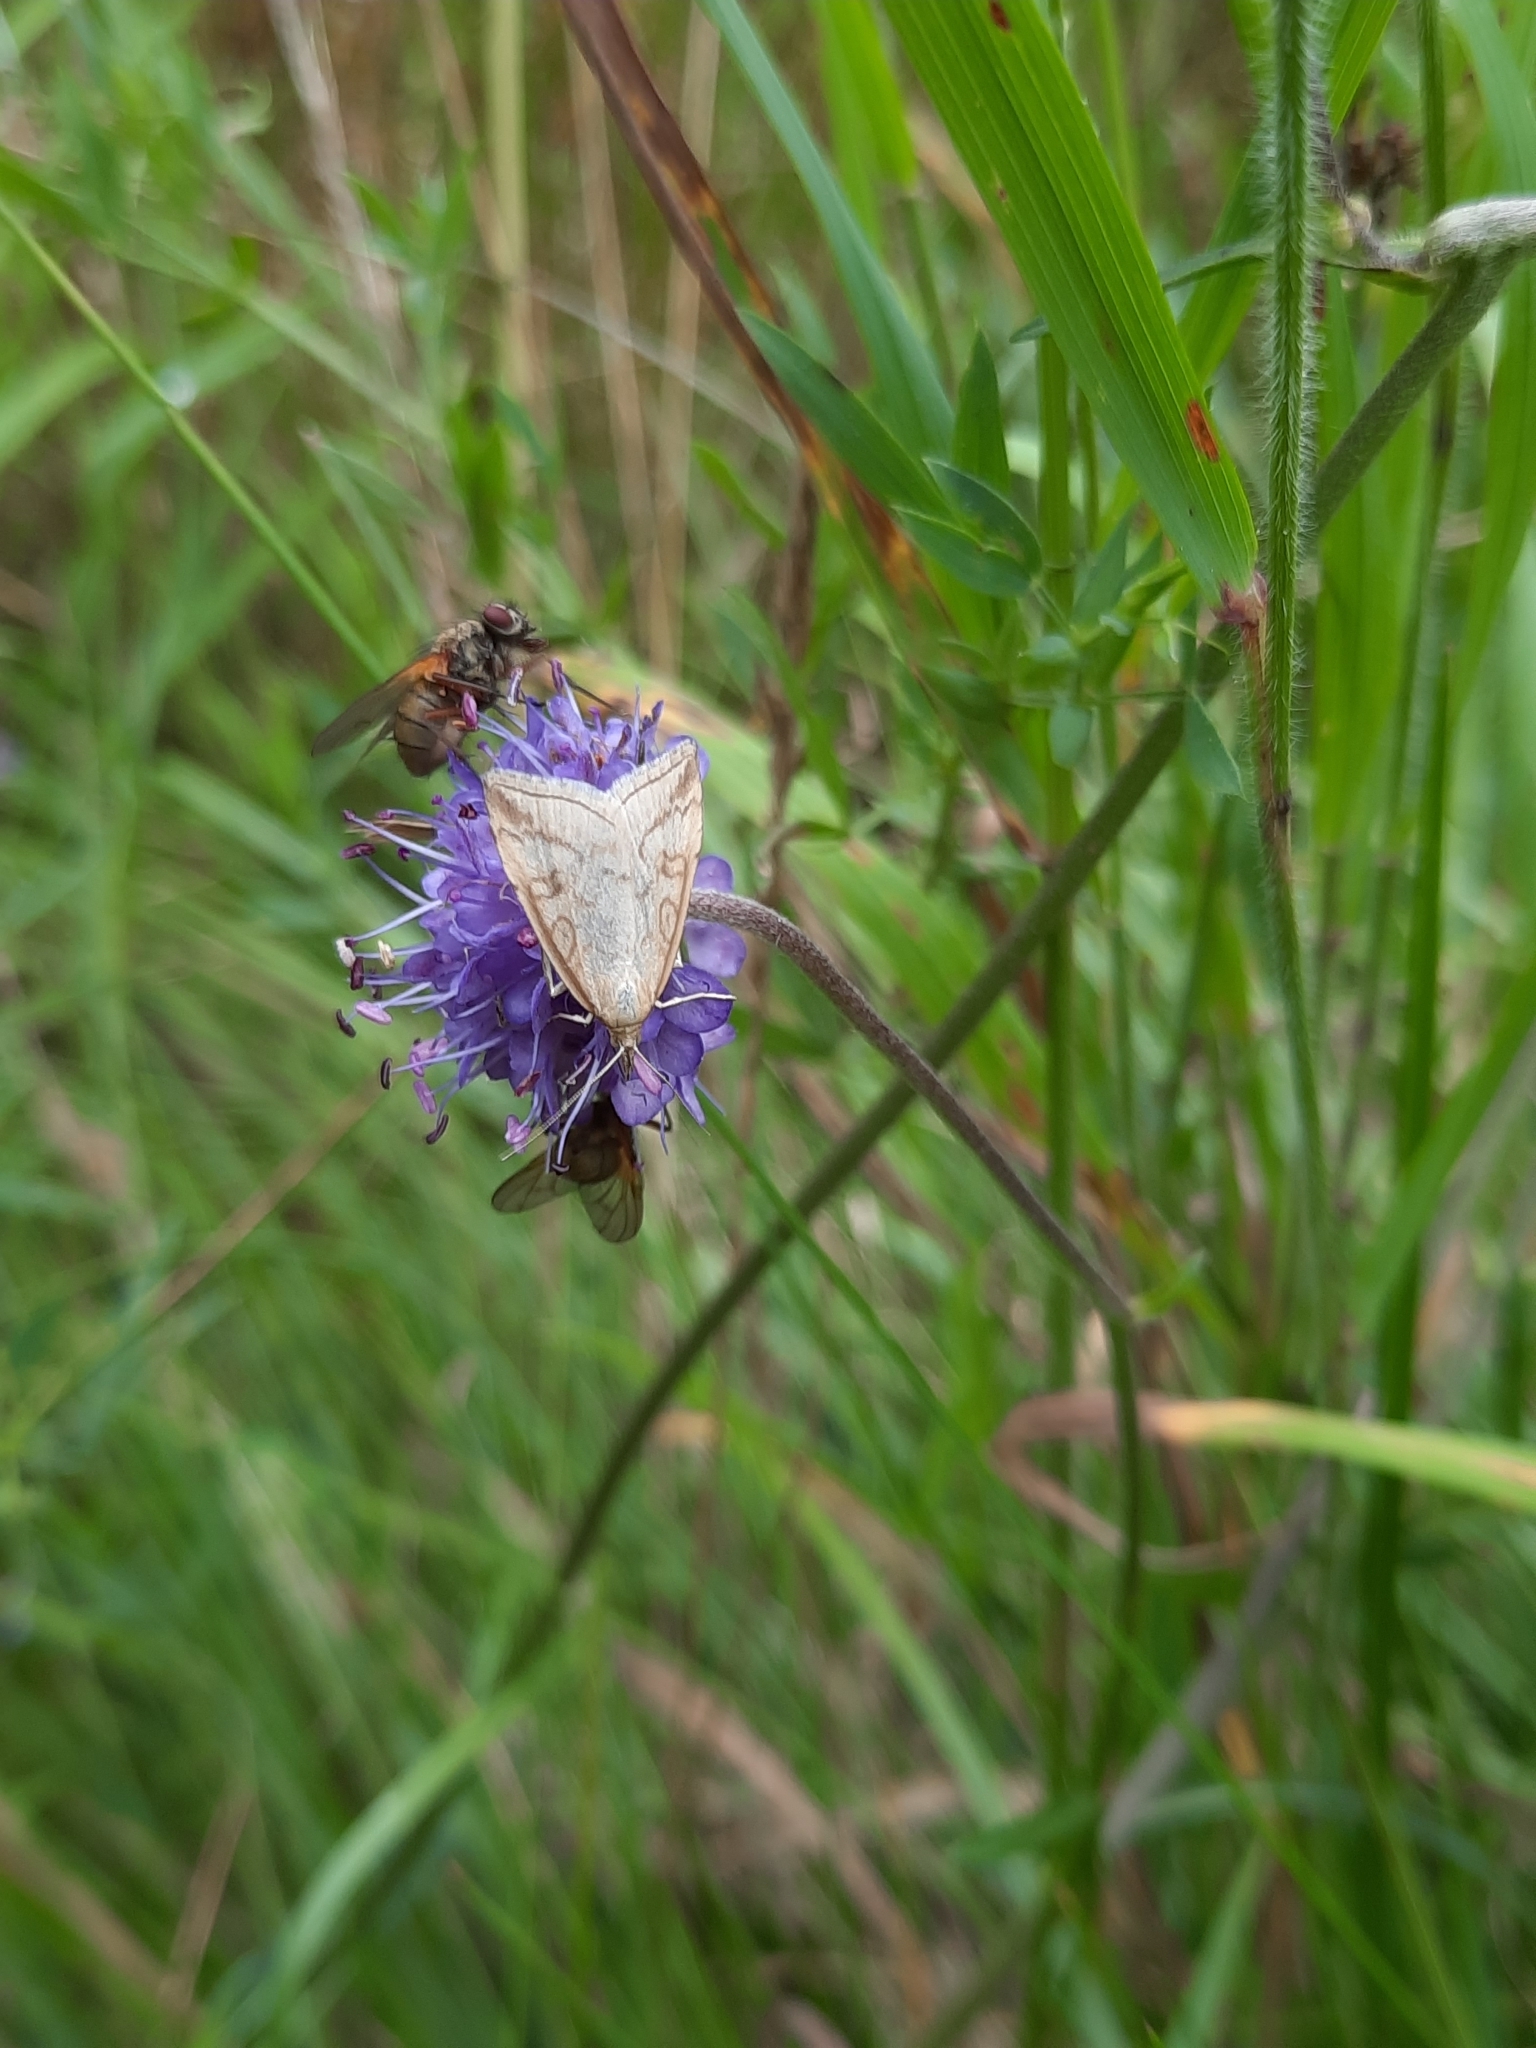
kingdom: Animalia
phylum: Arthropoda
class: Insecta
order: Lepidoptera
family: Crambidae
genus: Udea
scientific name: Udea lutealis
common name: Pale straw pearl
